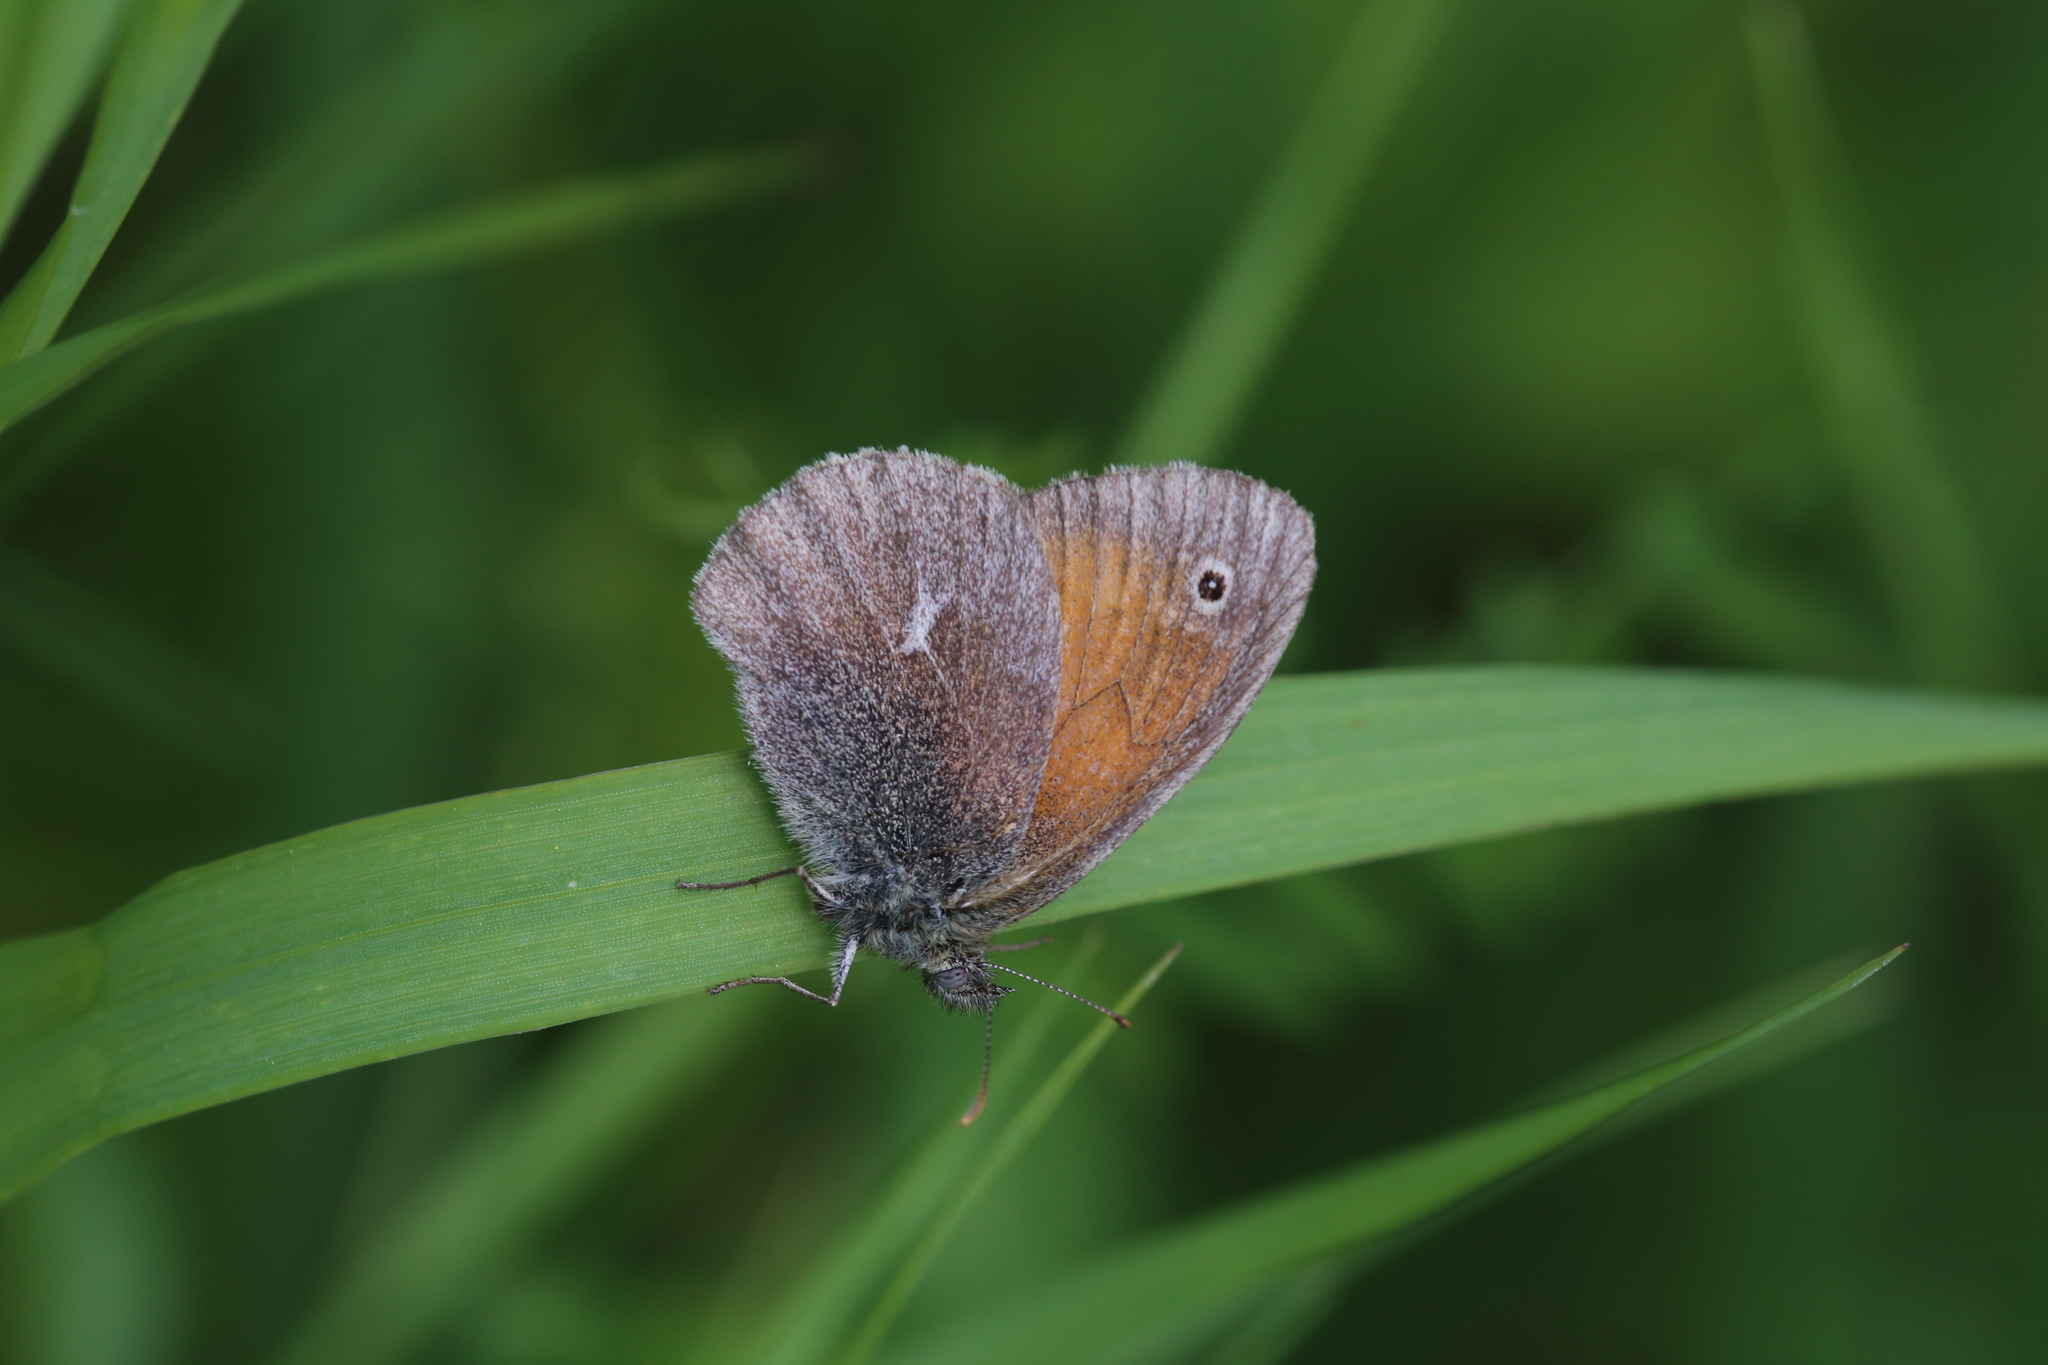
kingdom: Animalia
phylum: Arthropoda
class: Insecta
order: Lepidoptera
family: Nymphalidae
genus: Coenonympha
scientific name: Coenonympha california
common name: Common ringlet
